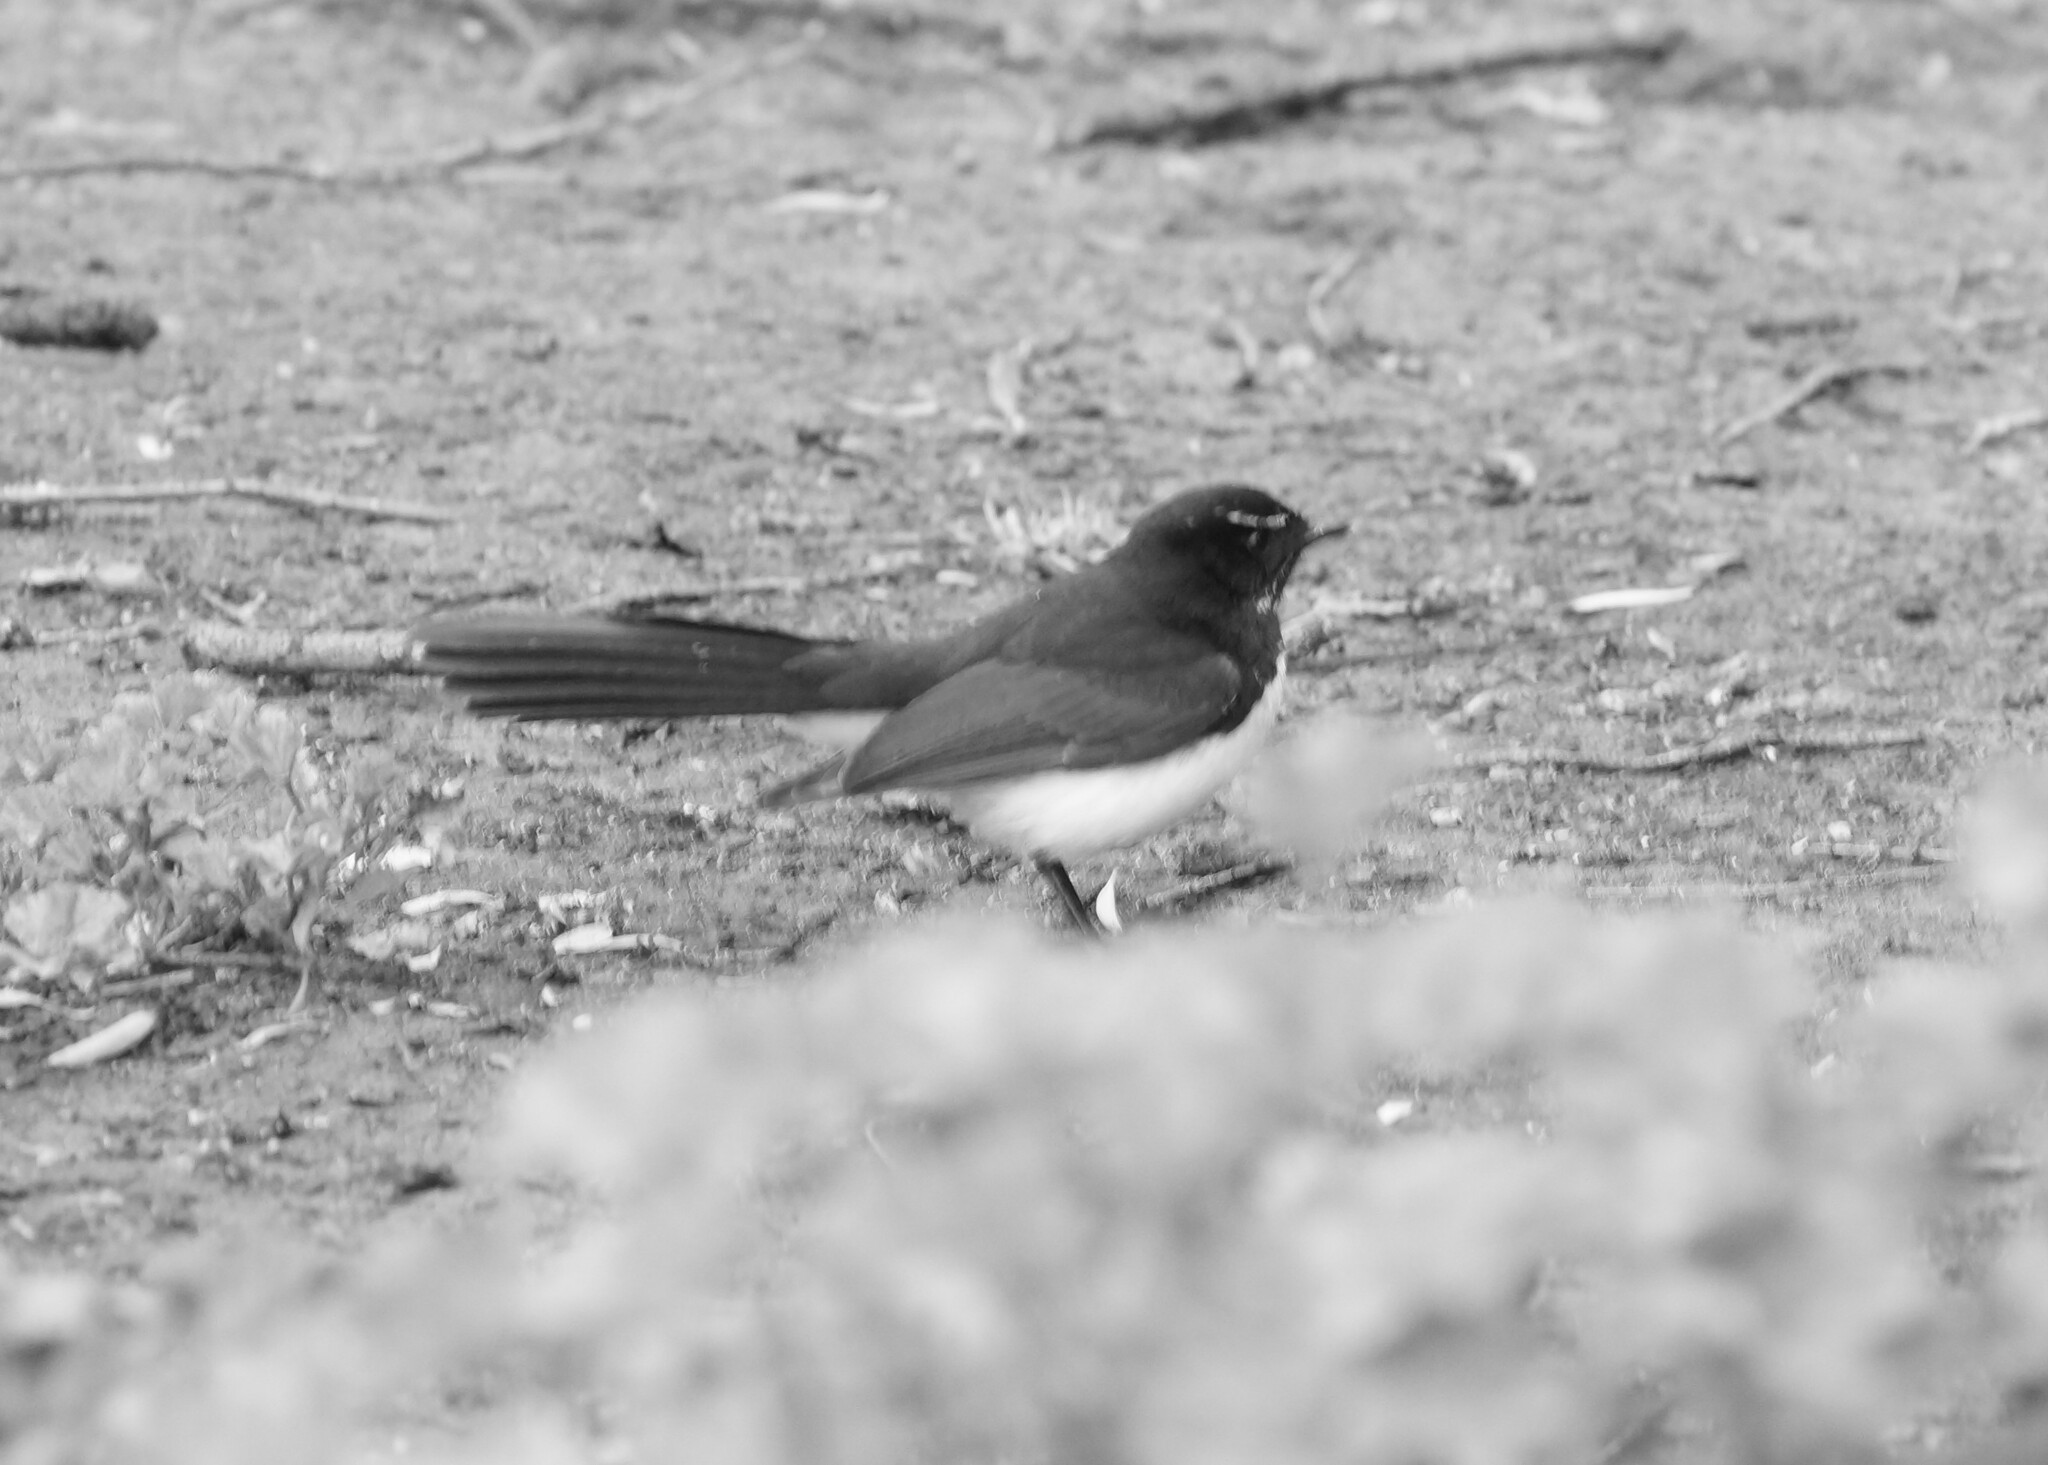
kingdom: Animalia
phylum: Chordata
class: Aves
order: Passeriformes
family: Rhipiduridae
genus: Rhipidura
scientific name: Rhipidura leucophrys
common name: Willie wagtail
